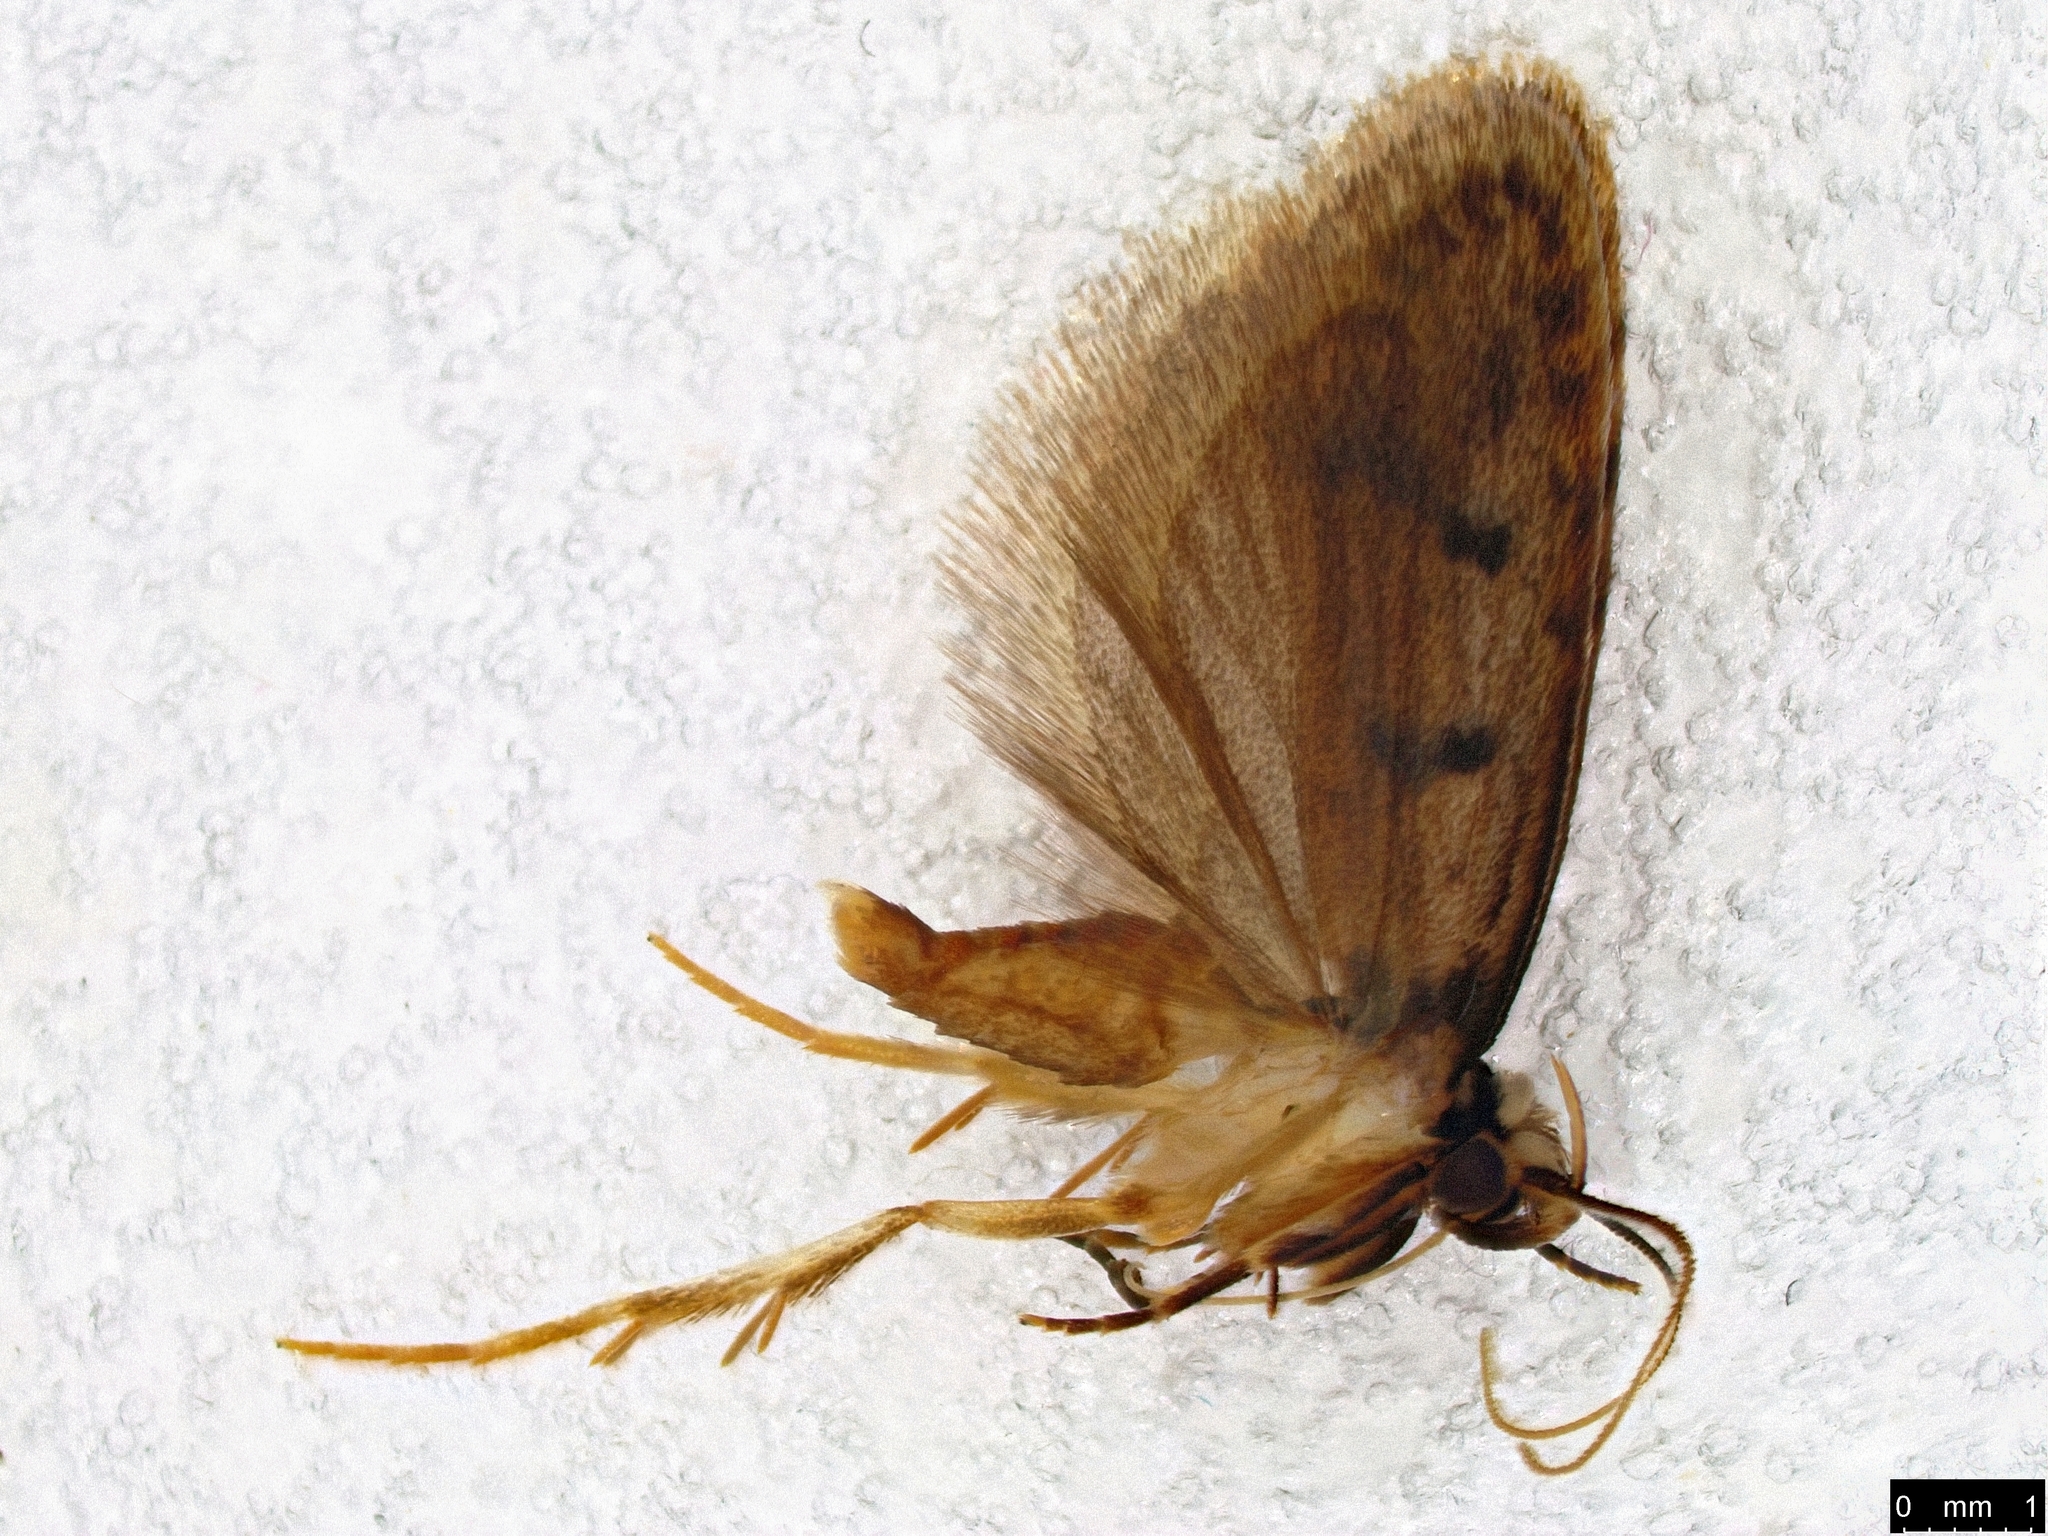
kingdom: Animalia
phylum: Arthropoda
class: Insecta
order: Lepidoptera
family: Oecophoridae
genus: Scatochresis
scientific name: Scatochresis
